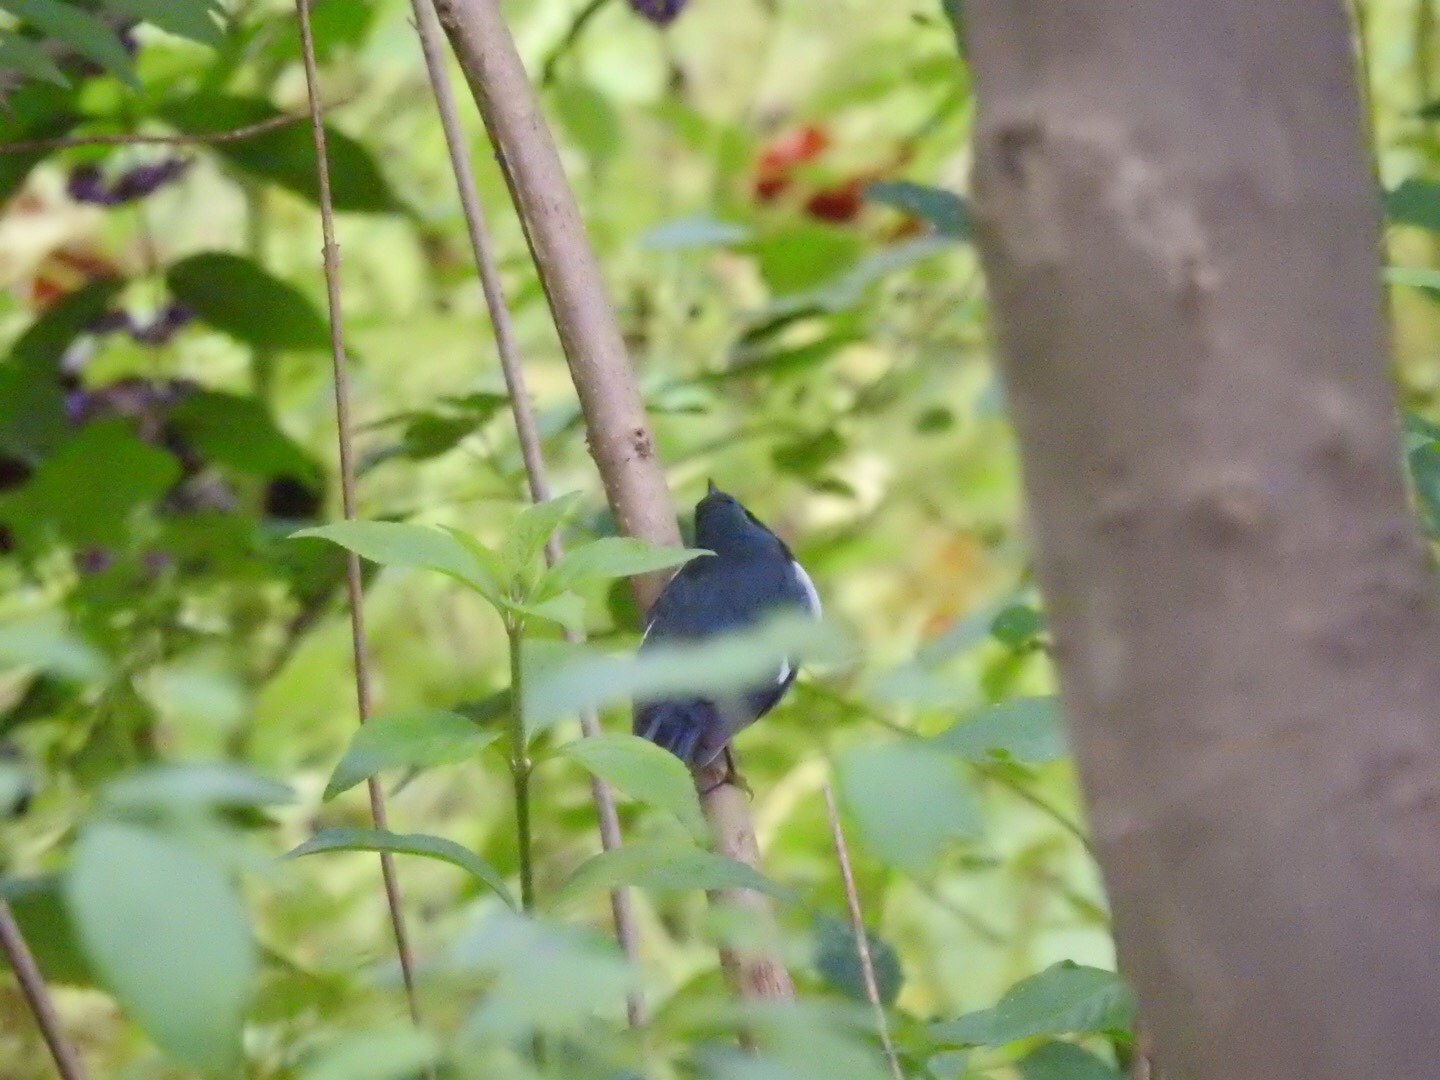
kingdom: Animalia
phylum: Chordata
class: Aves
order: Passeriformes
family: Parulidae
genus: Setophaga
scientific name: Setophaga caerulescens
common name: Black-throated blue warbler
